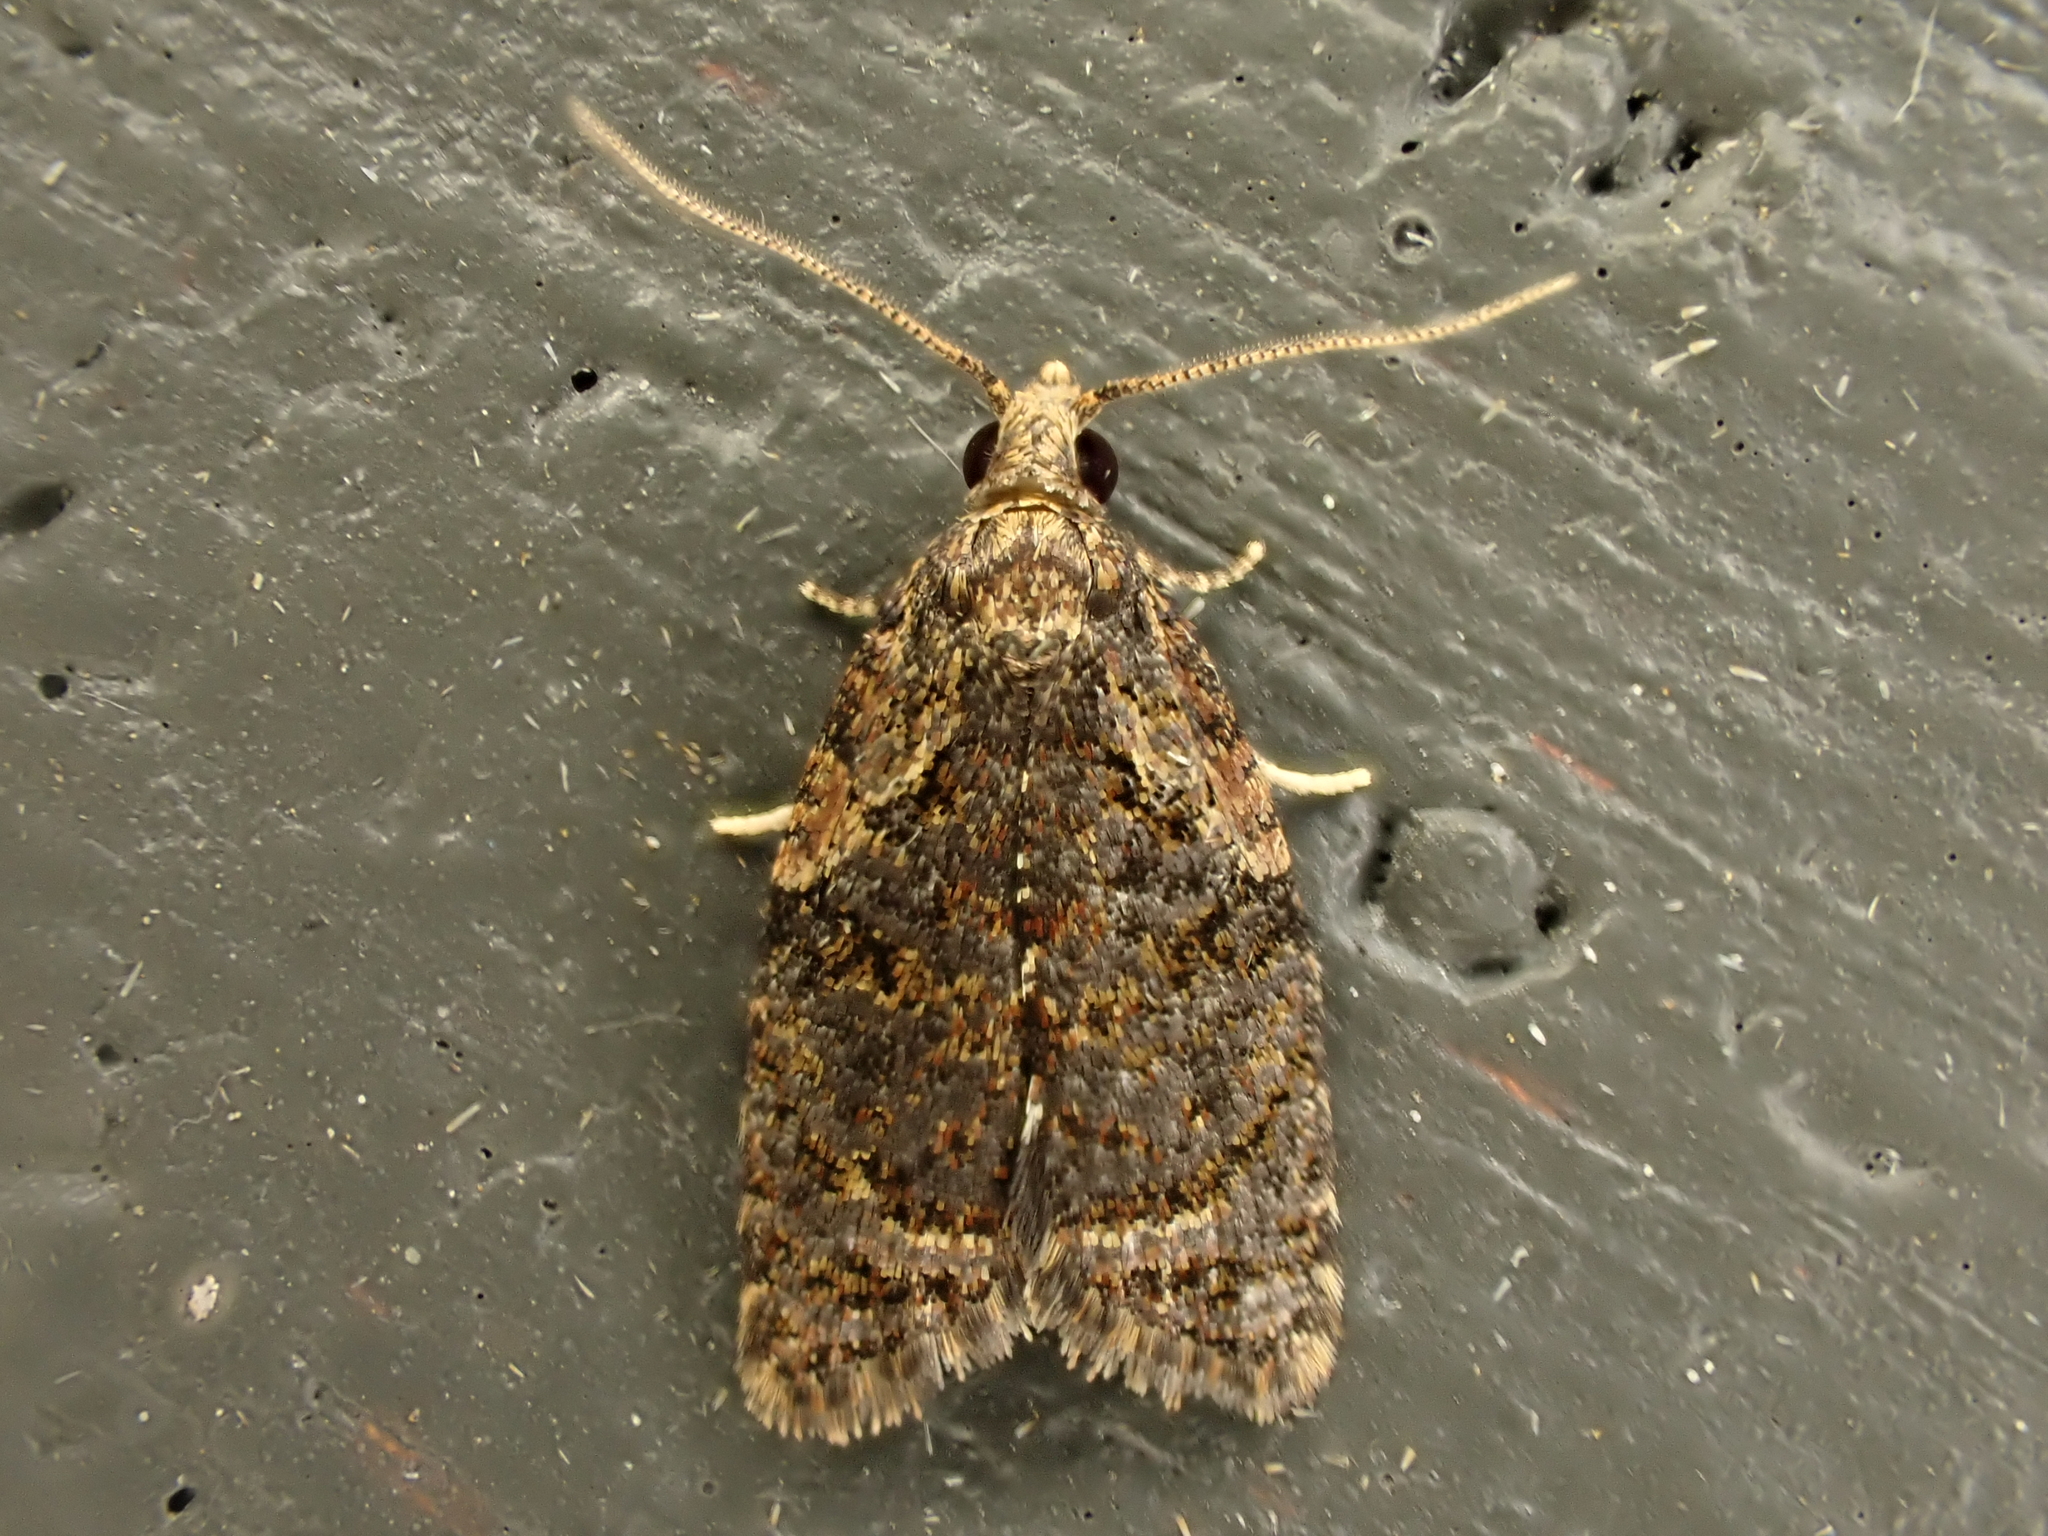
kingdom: Animalia
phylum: Arthropoda
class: Insecta
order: Lepidoptera
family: Tortricidae
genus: Capua
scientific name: Capua intractana
